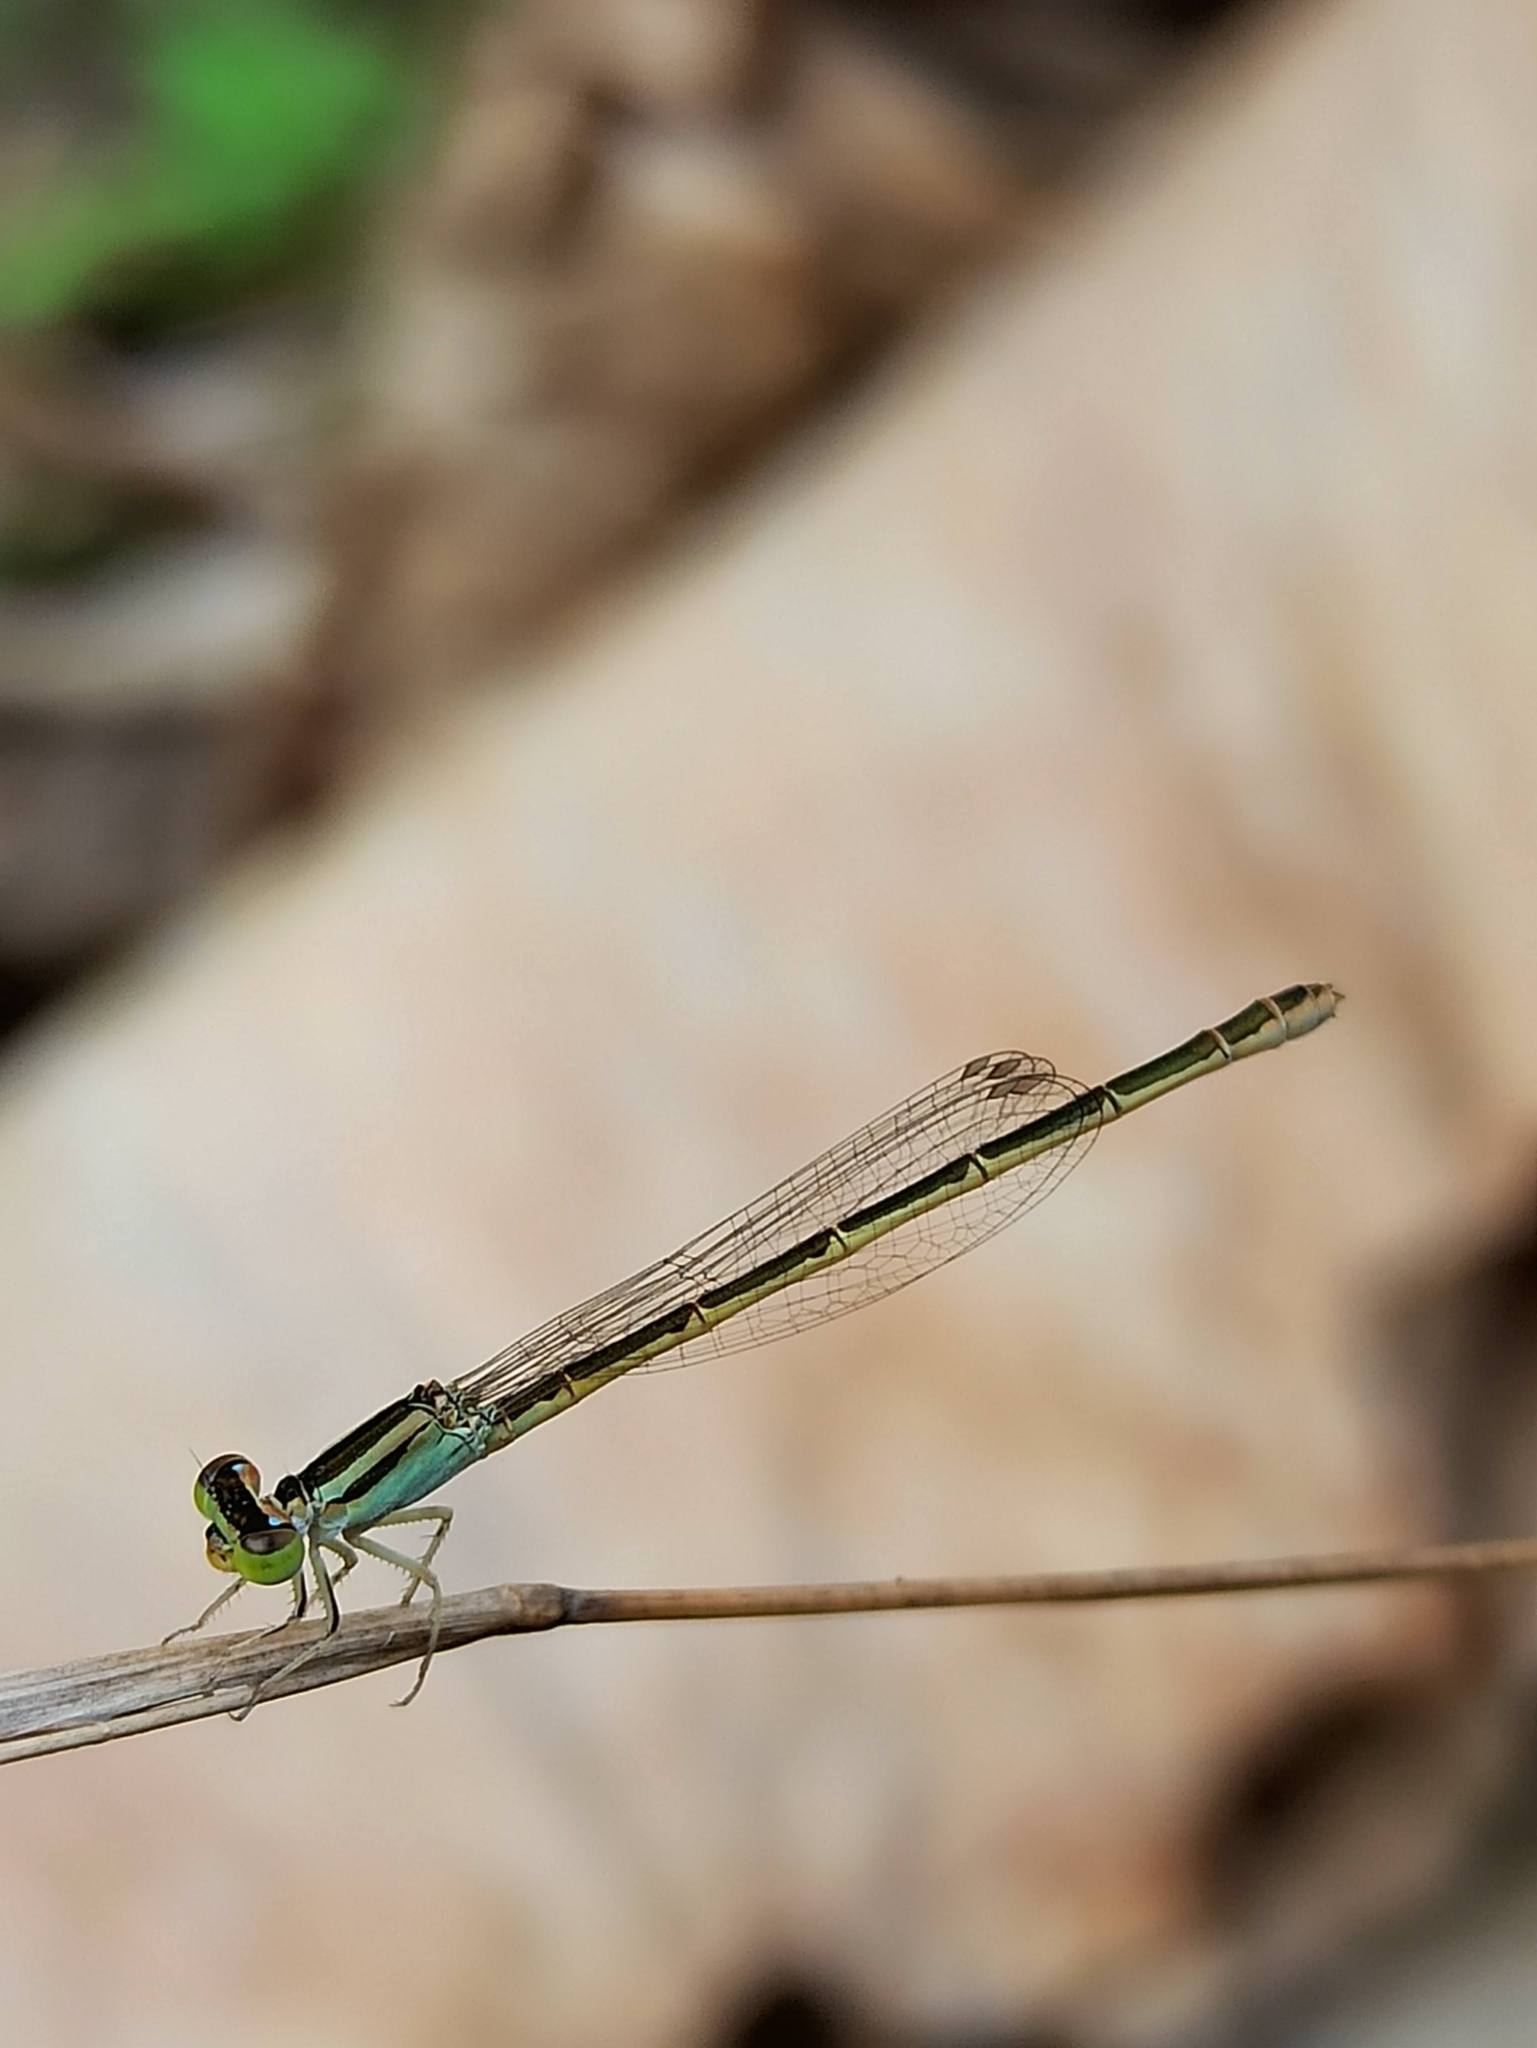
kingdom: Animalia
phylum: Arthropoda
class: Insecta
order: Odonata
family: Coenagrionidae
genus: Ischnura
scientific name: Ischnura rubilio
